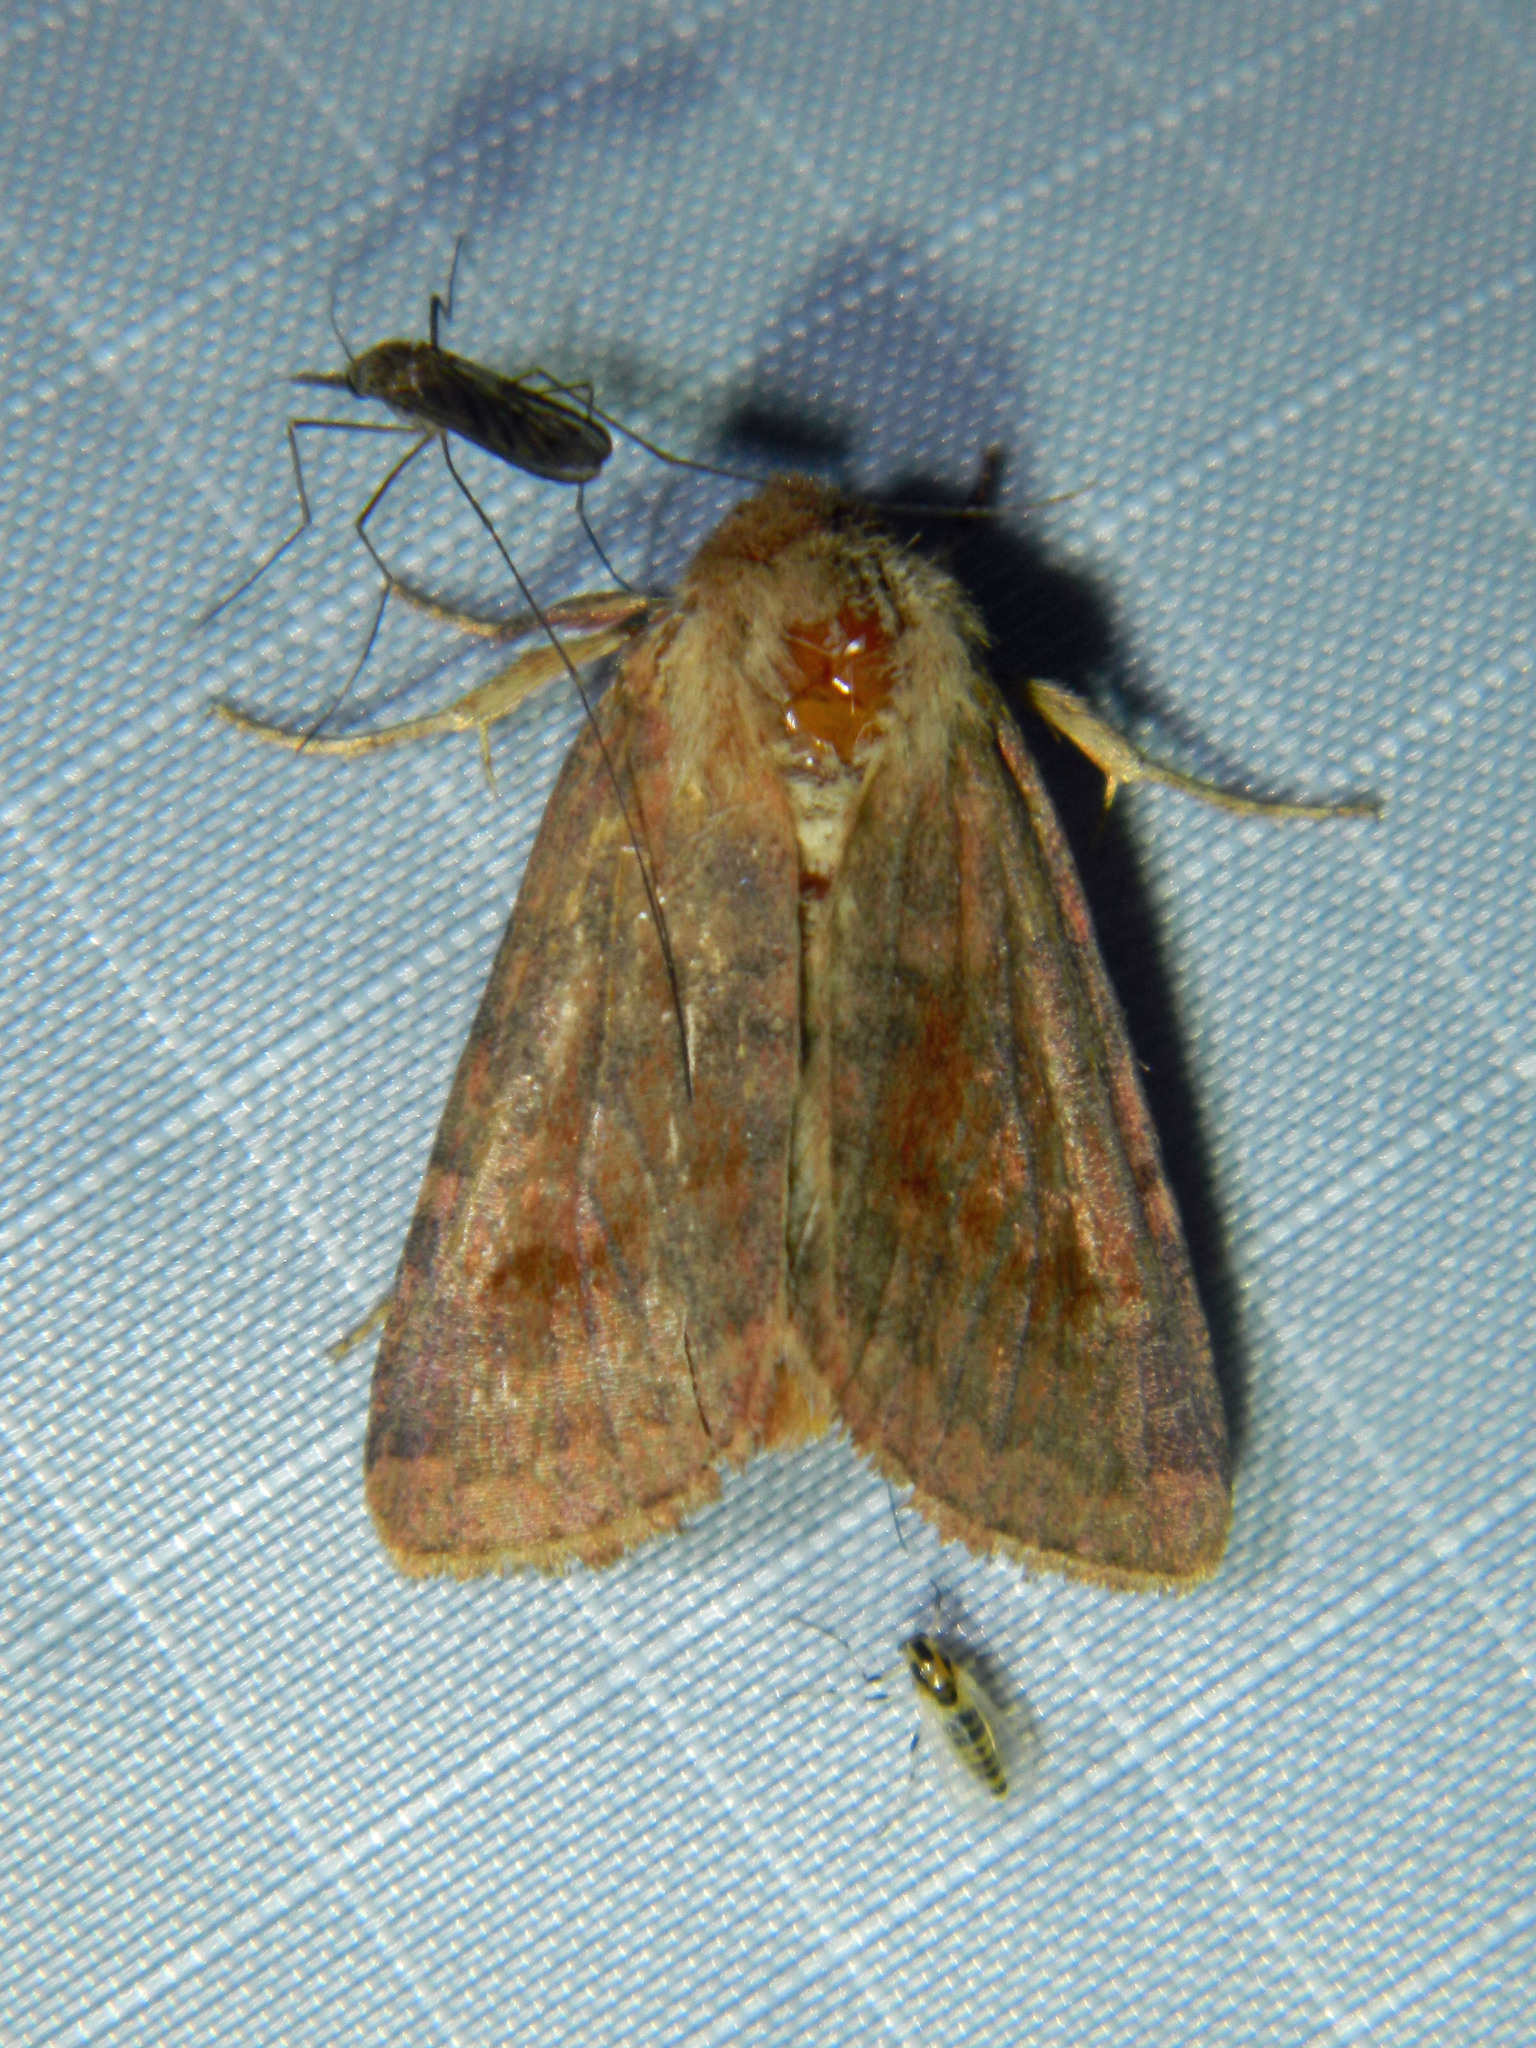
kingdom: Animalia
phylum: Arthropoda
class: Insecta
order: Lepidoptera
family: Noctuidae
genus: Nephelodes
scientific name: Nephelodes minians
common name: Bronzed cutworm
